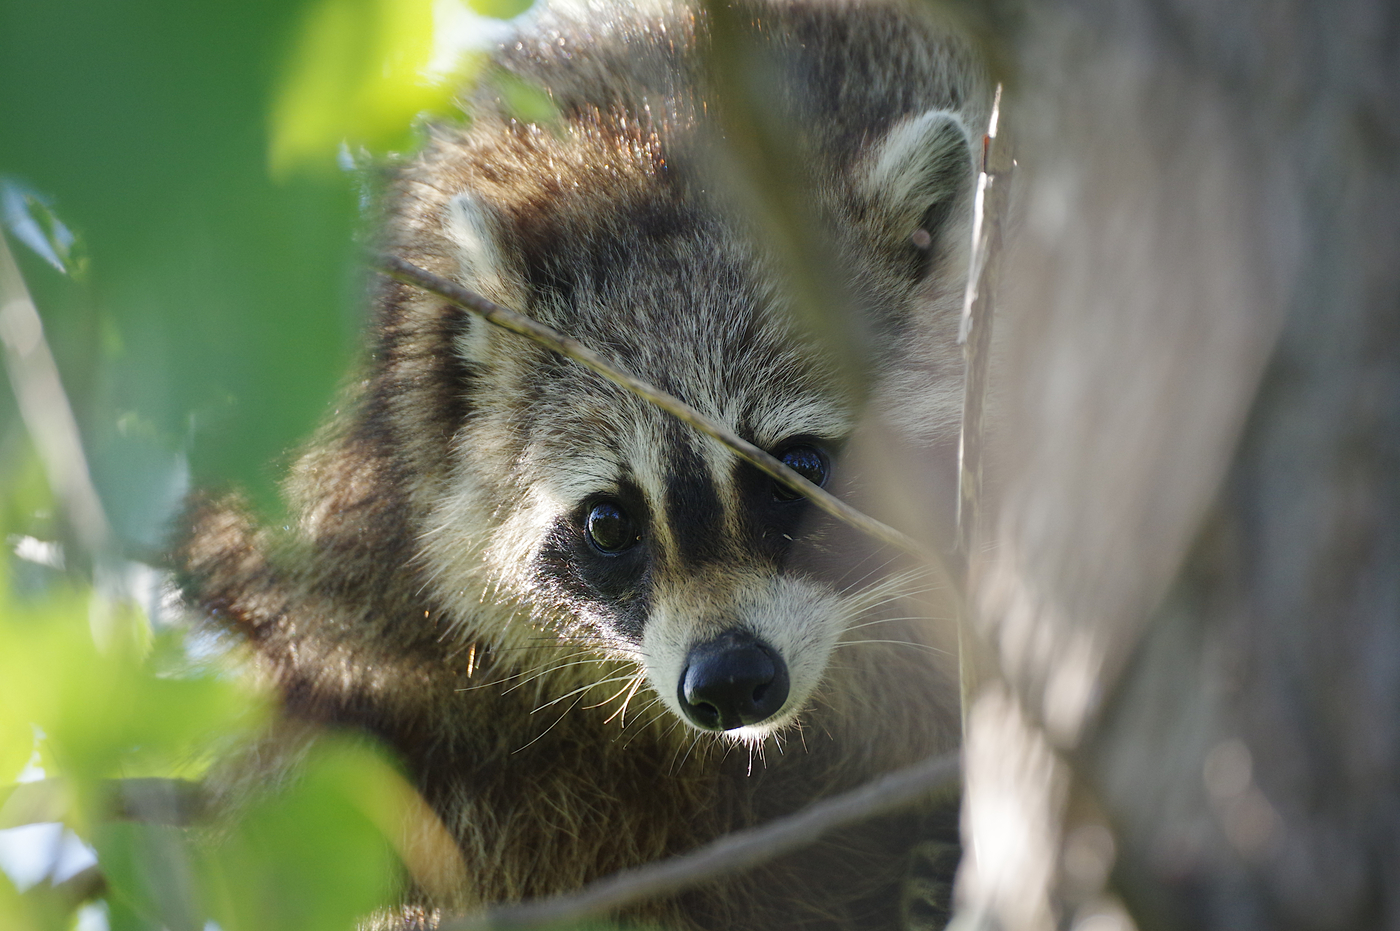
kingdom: Animalia
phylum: Chordata
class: Mammalia
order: Carnivora
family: Procyonidae
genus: Procyon
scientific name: Procyon lotor
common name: Raccoon
